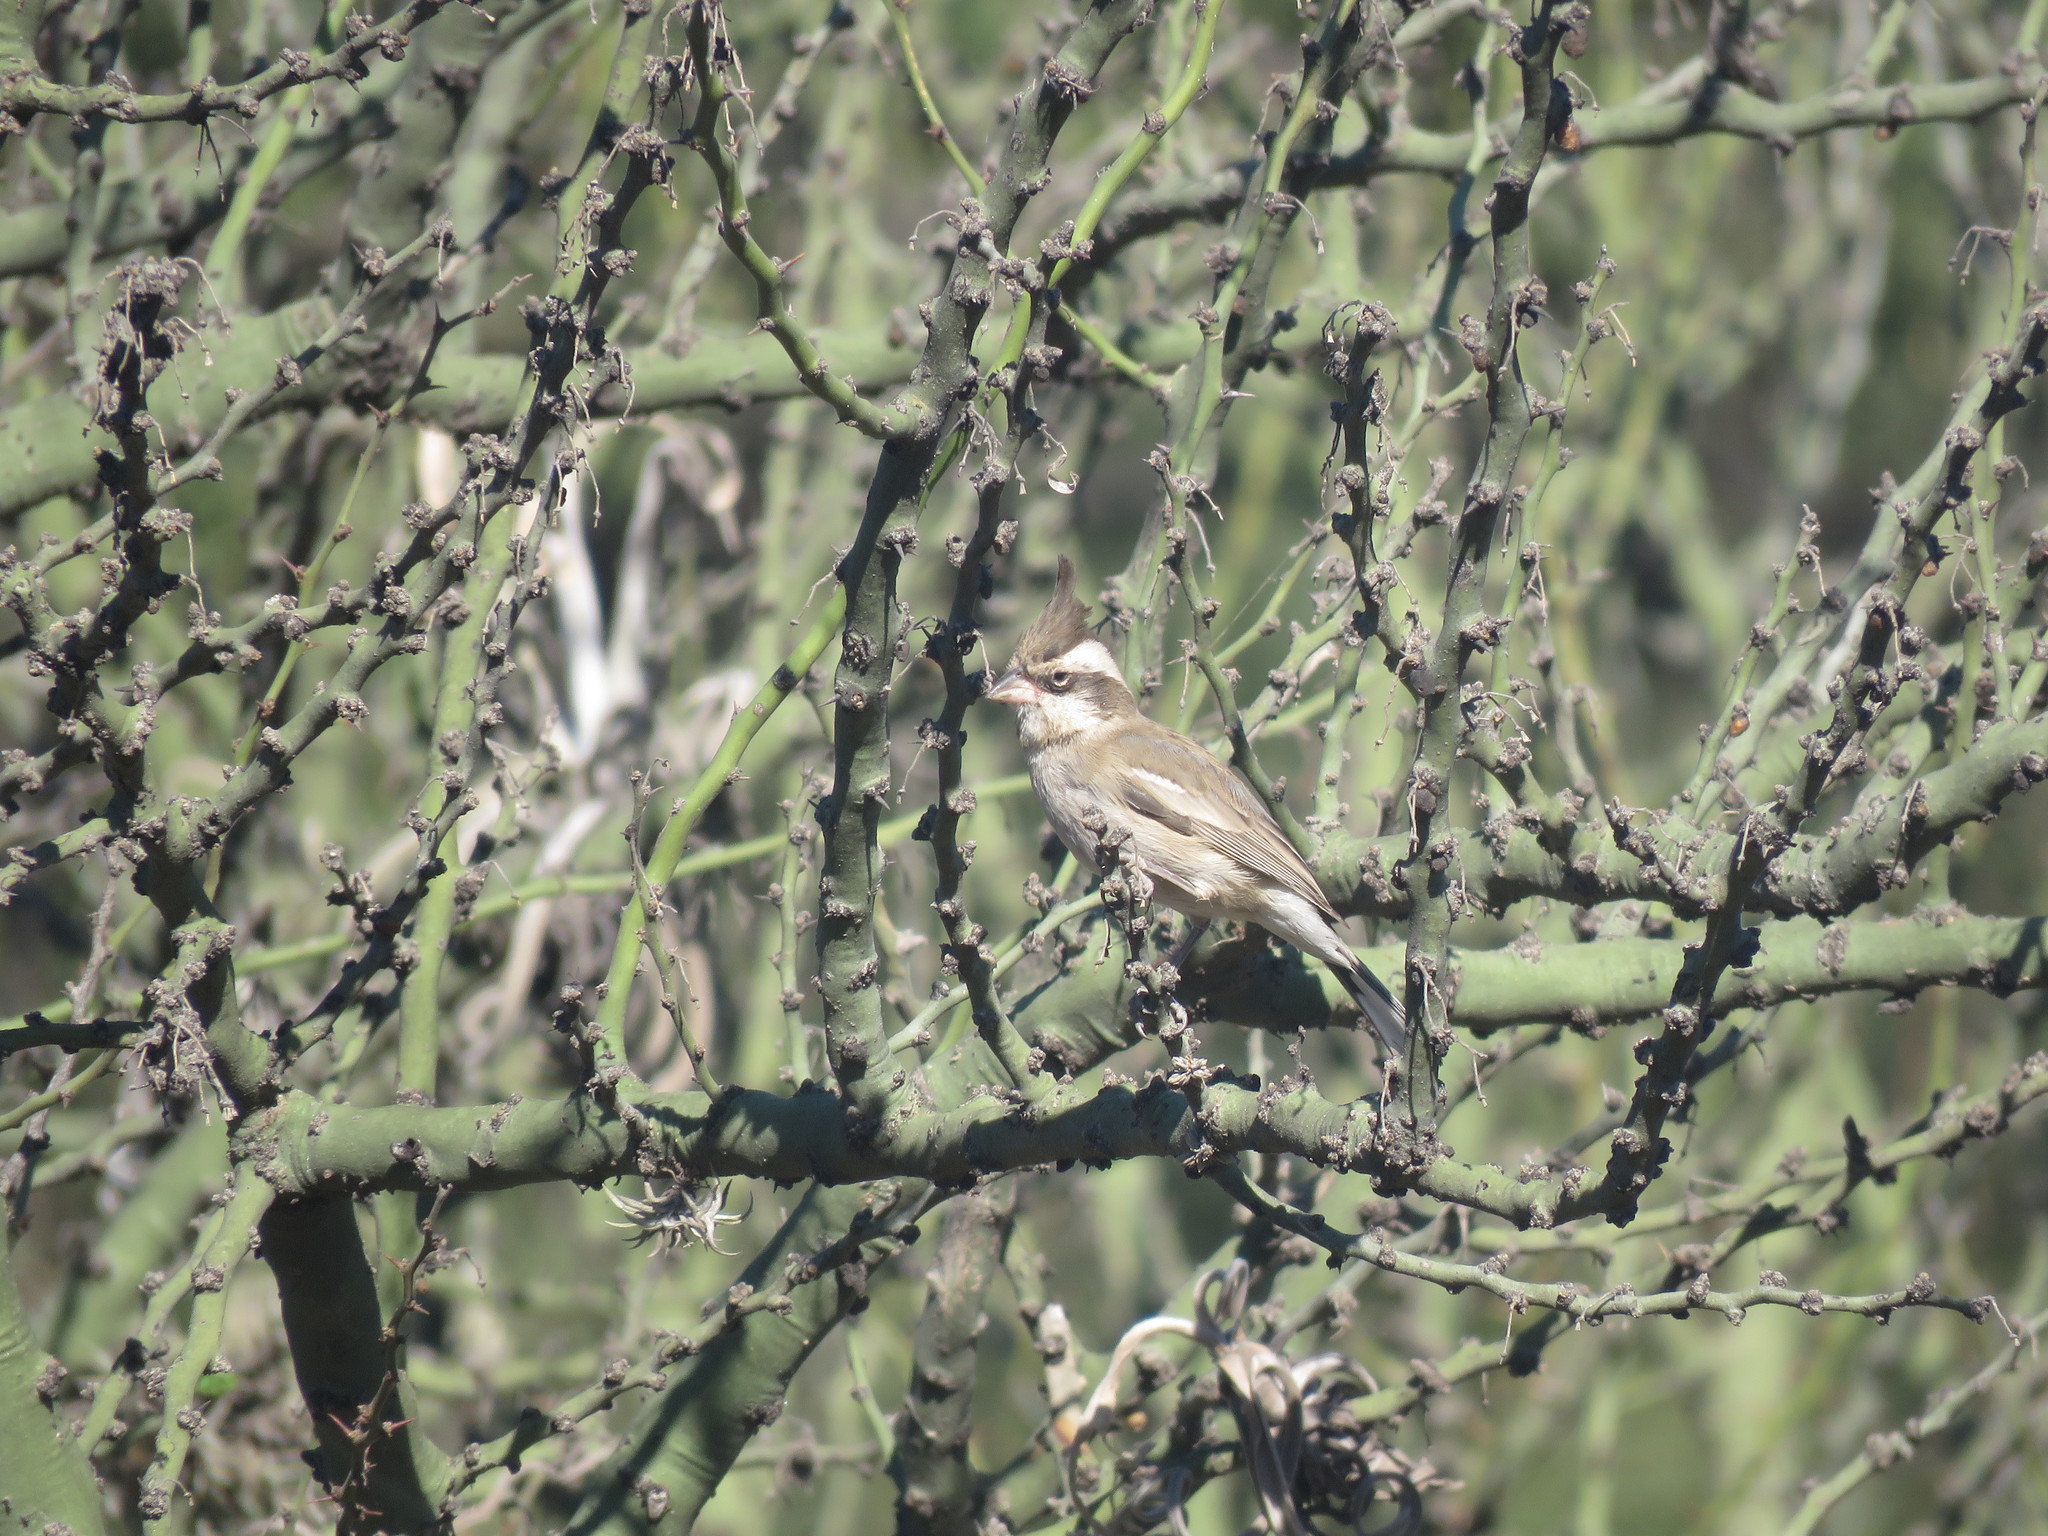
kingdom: Animalia
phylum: Chordata
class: Aves
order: Passeriformes
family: Thraupidae
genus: Lophospingus
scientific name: Lophospingus pusillus
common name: Black-crested finch
